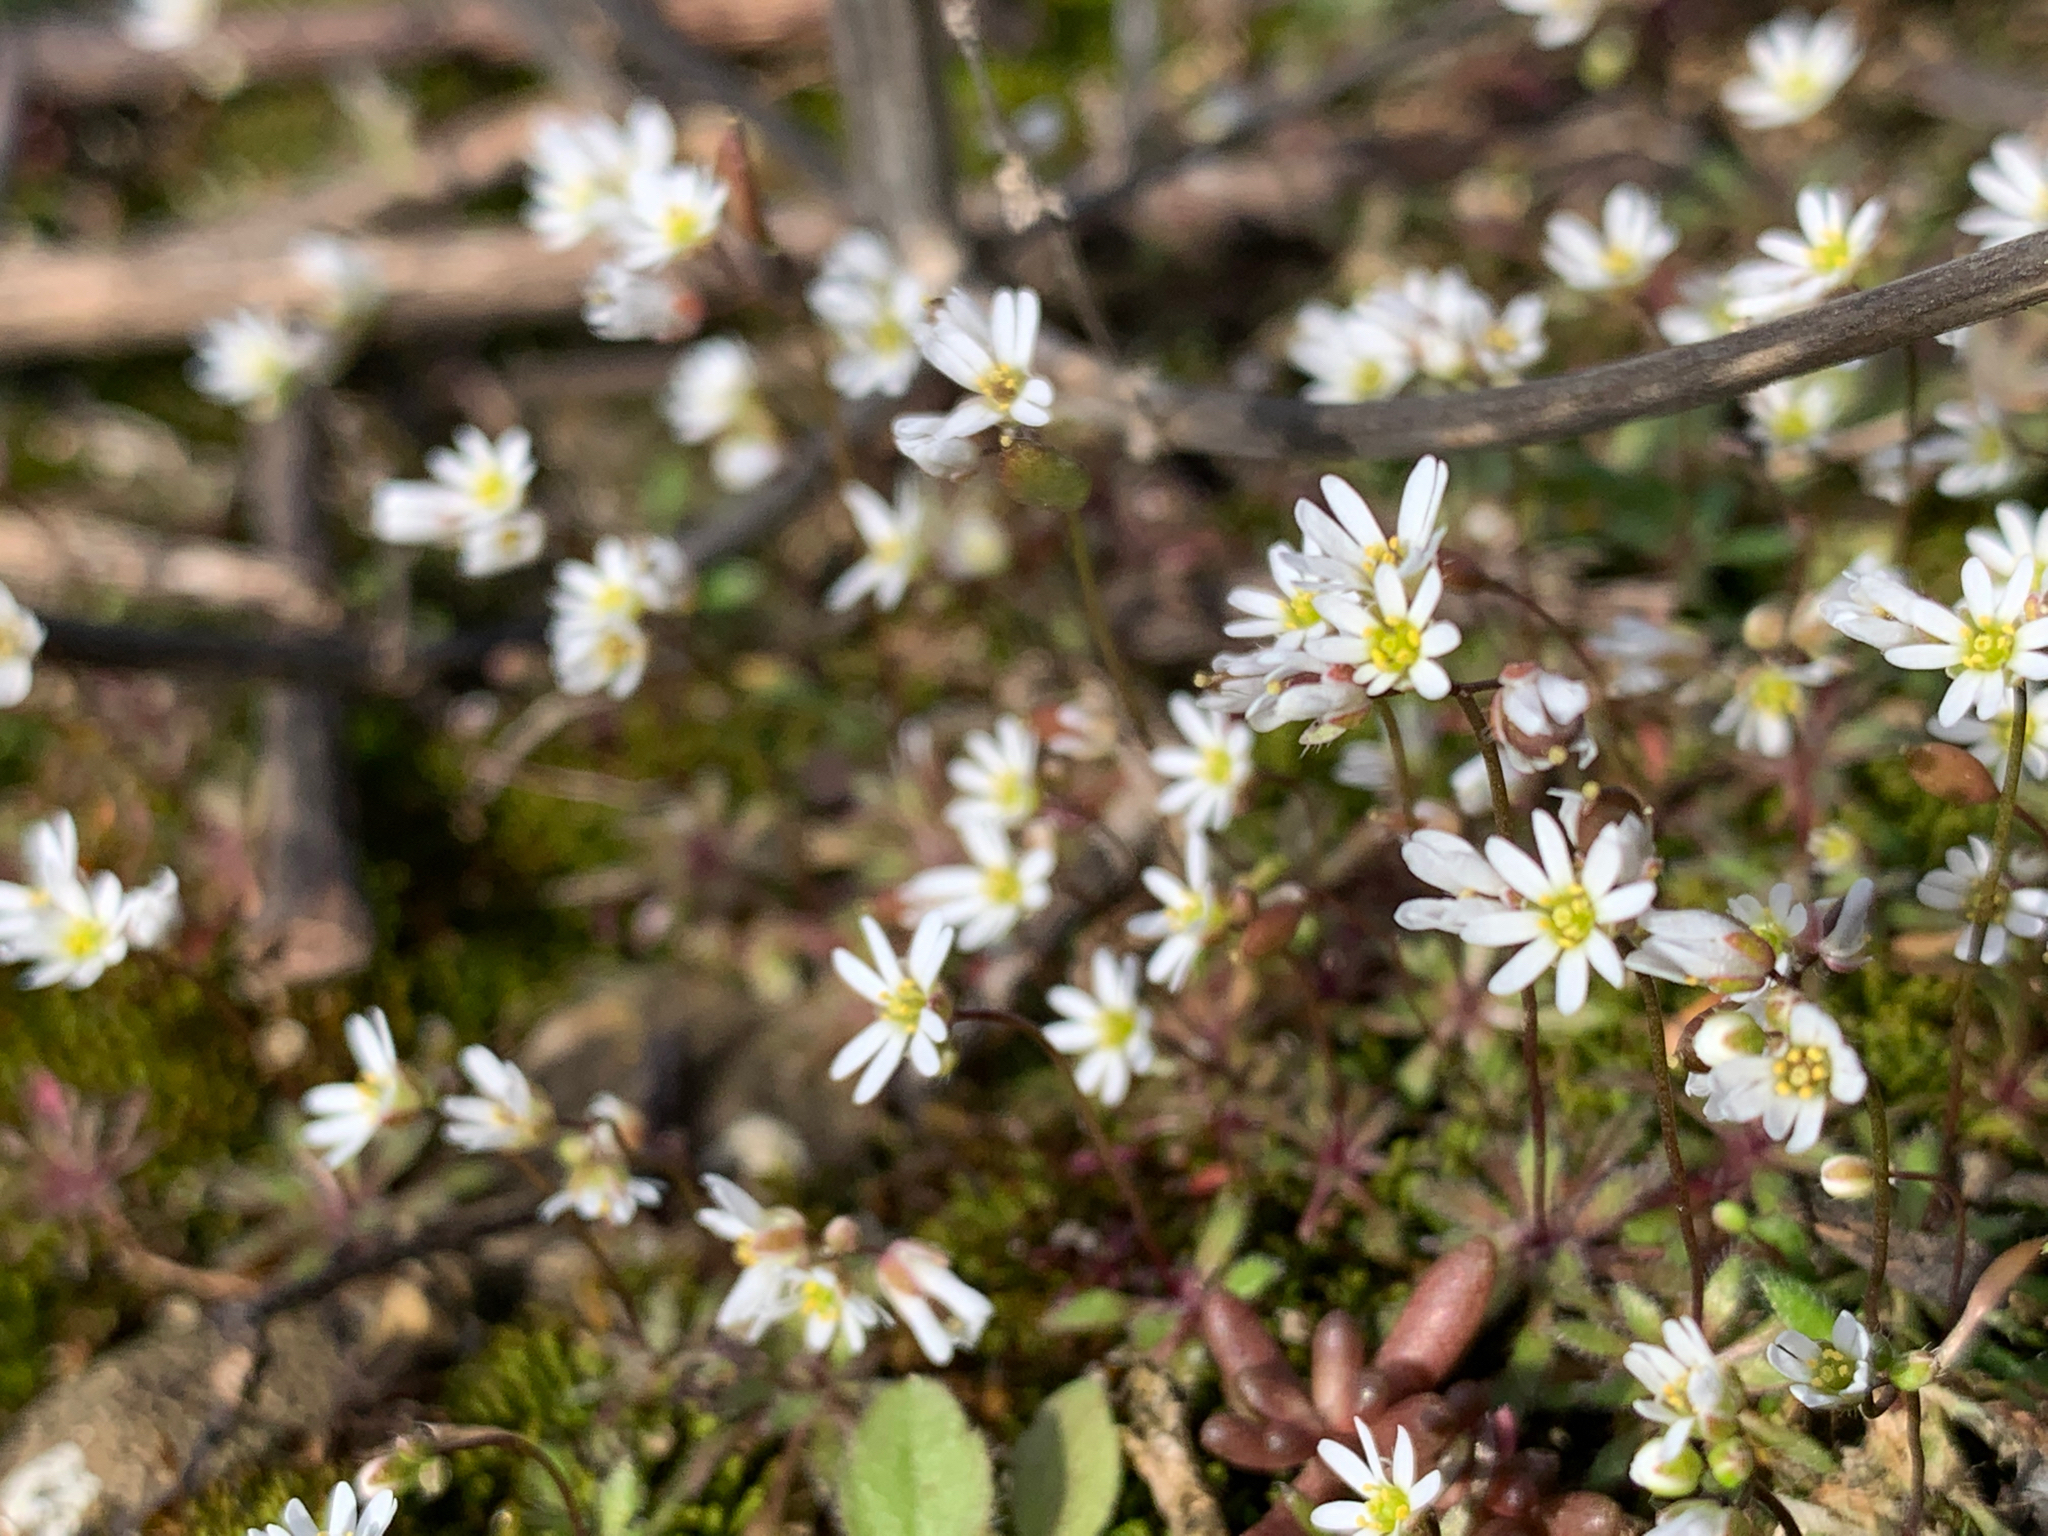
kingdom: Plantae
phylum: Tracheophyta
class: Magnoliopsida
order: Brassicales
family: Brassicaceae
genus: Draba
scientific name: Draba verna
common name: Spring draba
